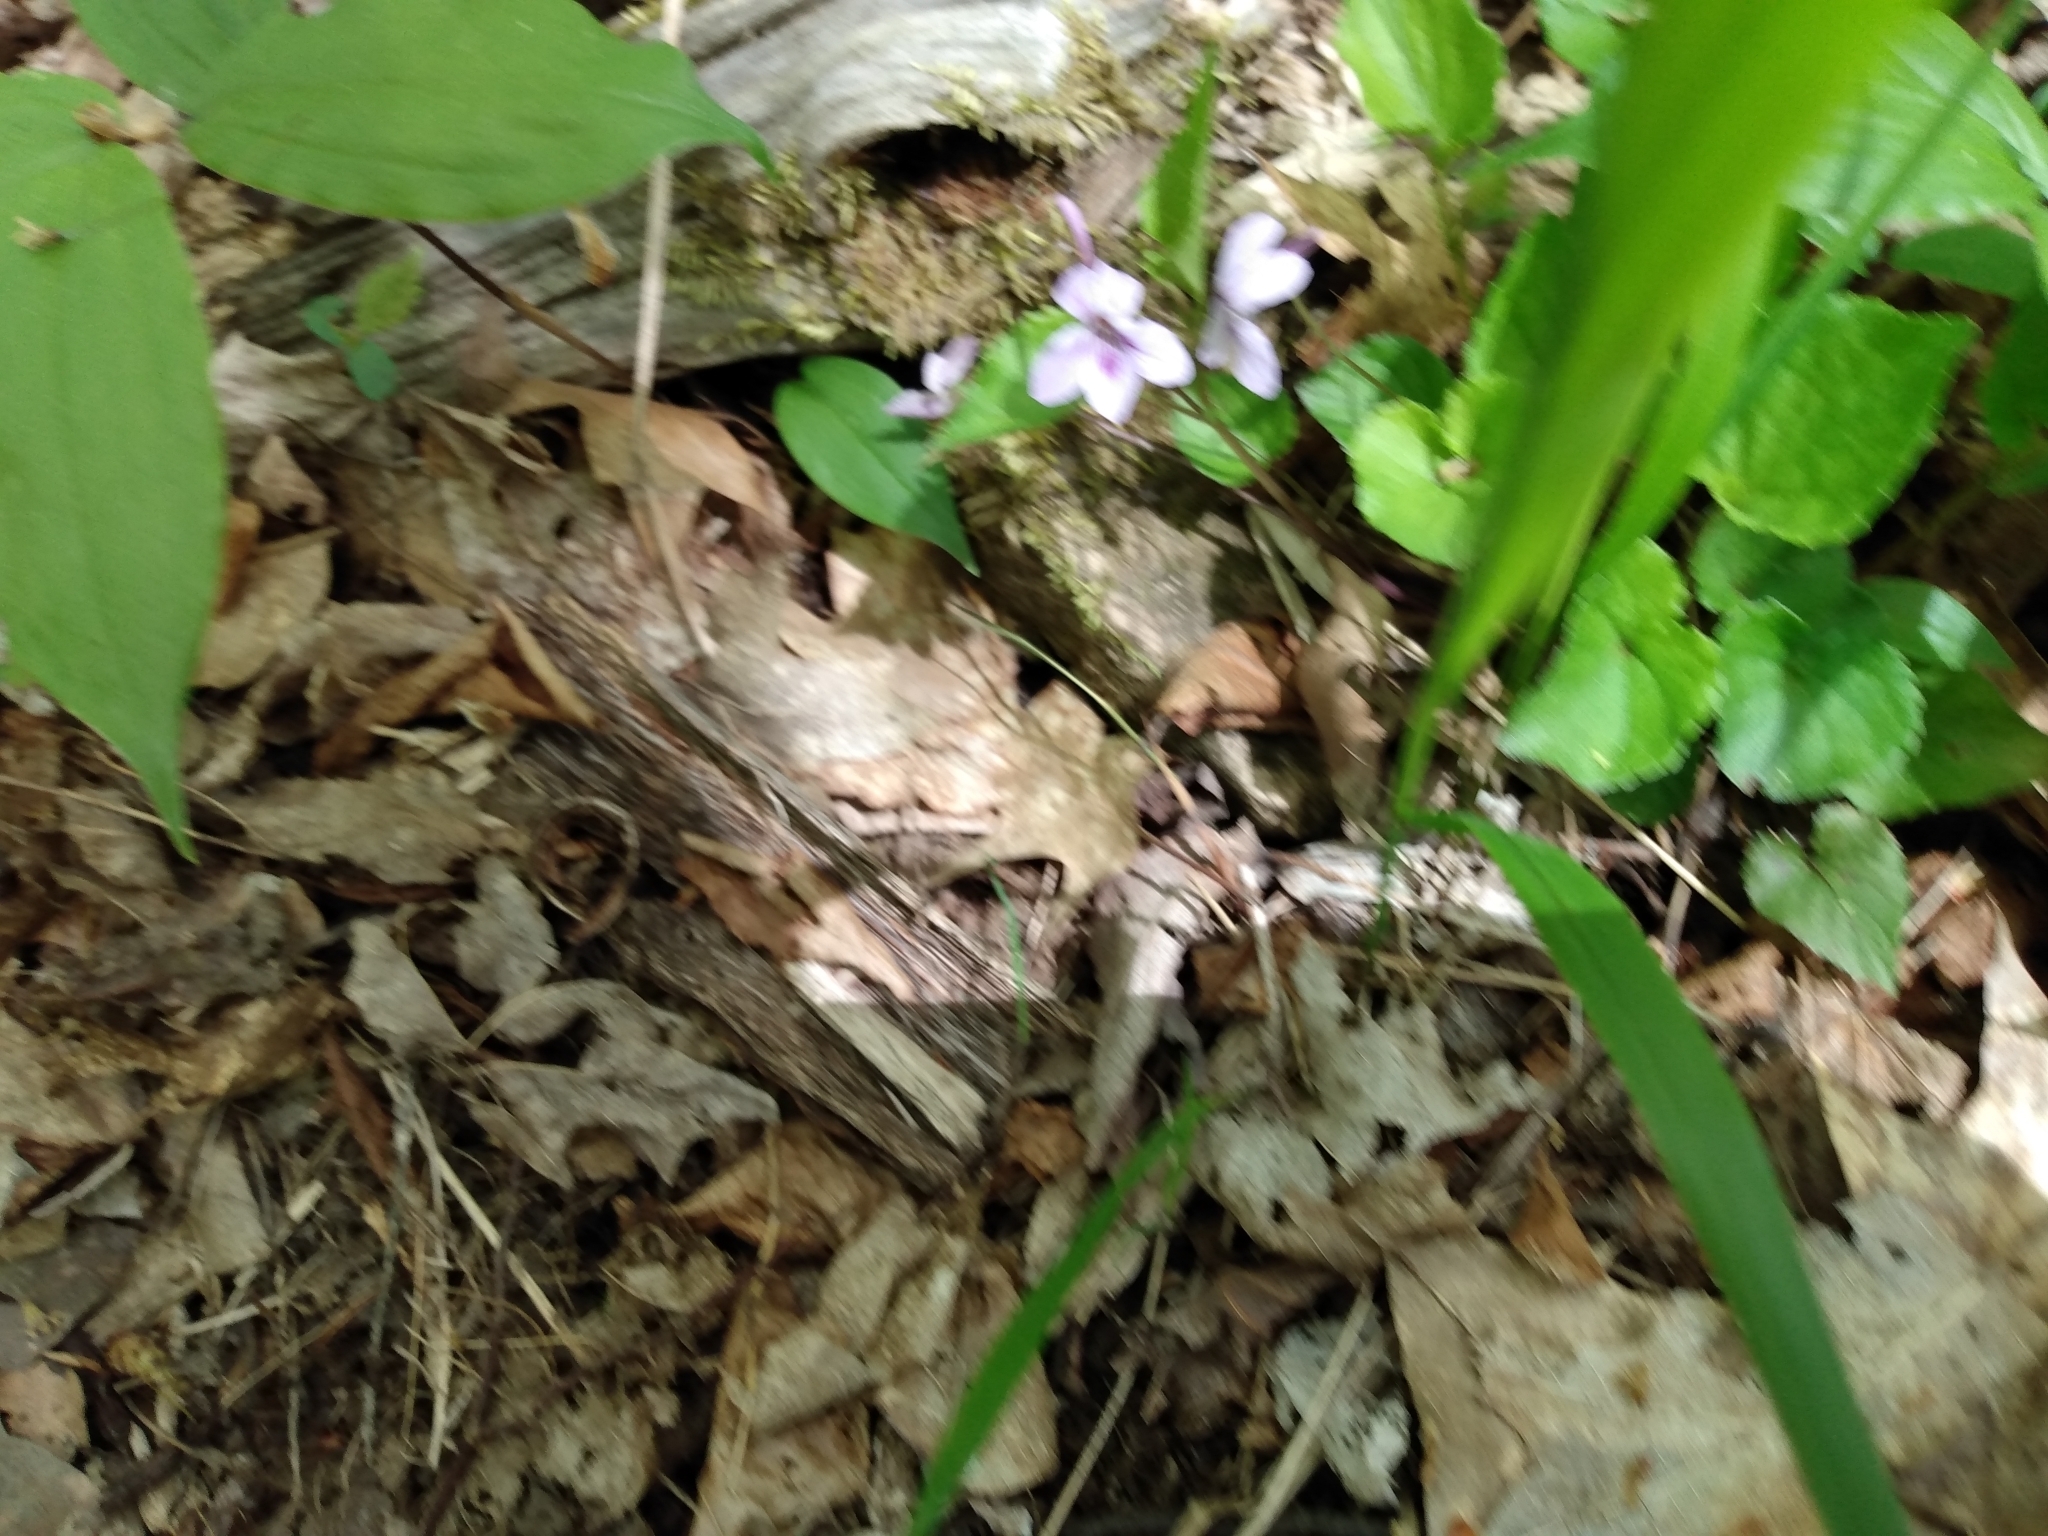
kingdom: Plantae
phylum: Tracheophyta
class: Magnoliopsida
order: Malpighiales
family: Violaceae
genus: Viola
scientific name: Viola rostrata
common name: Long-spur violet
